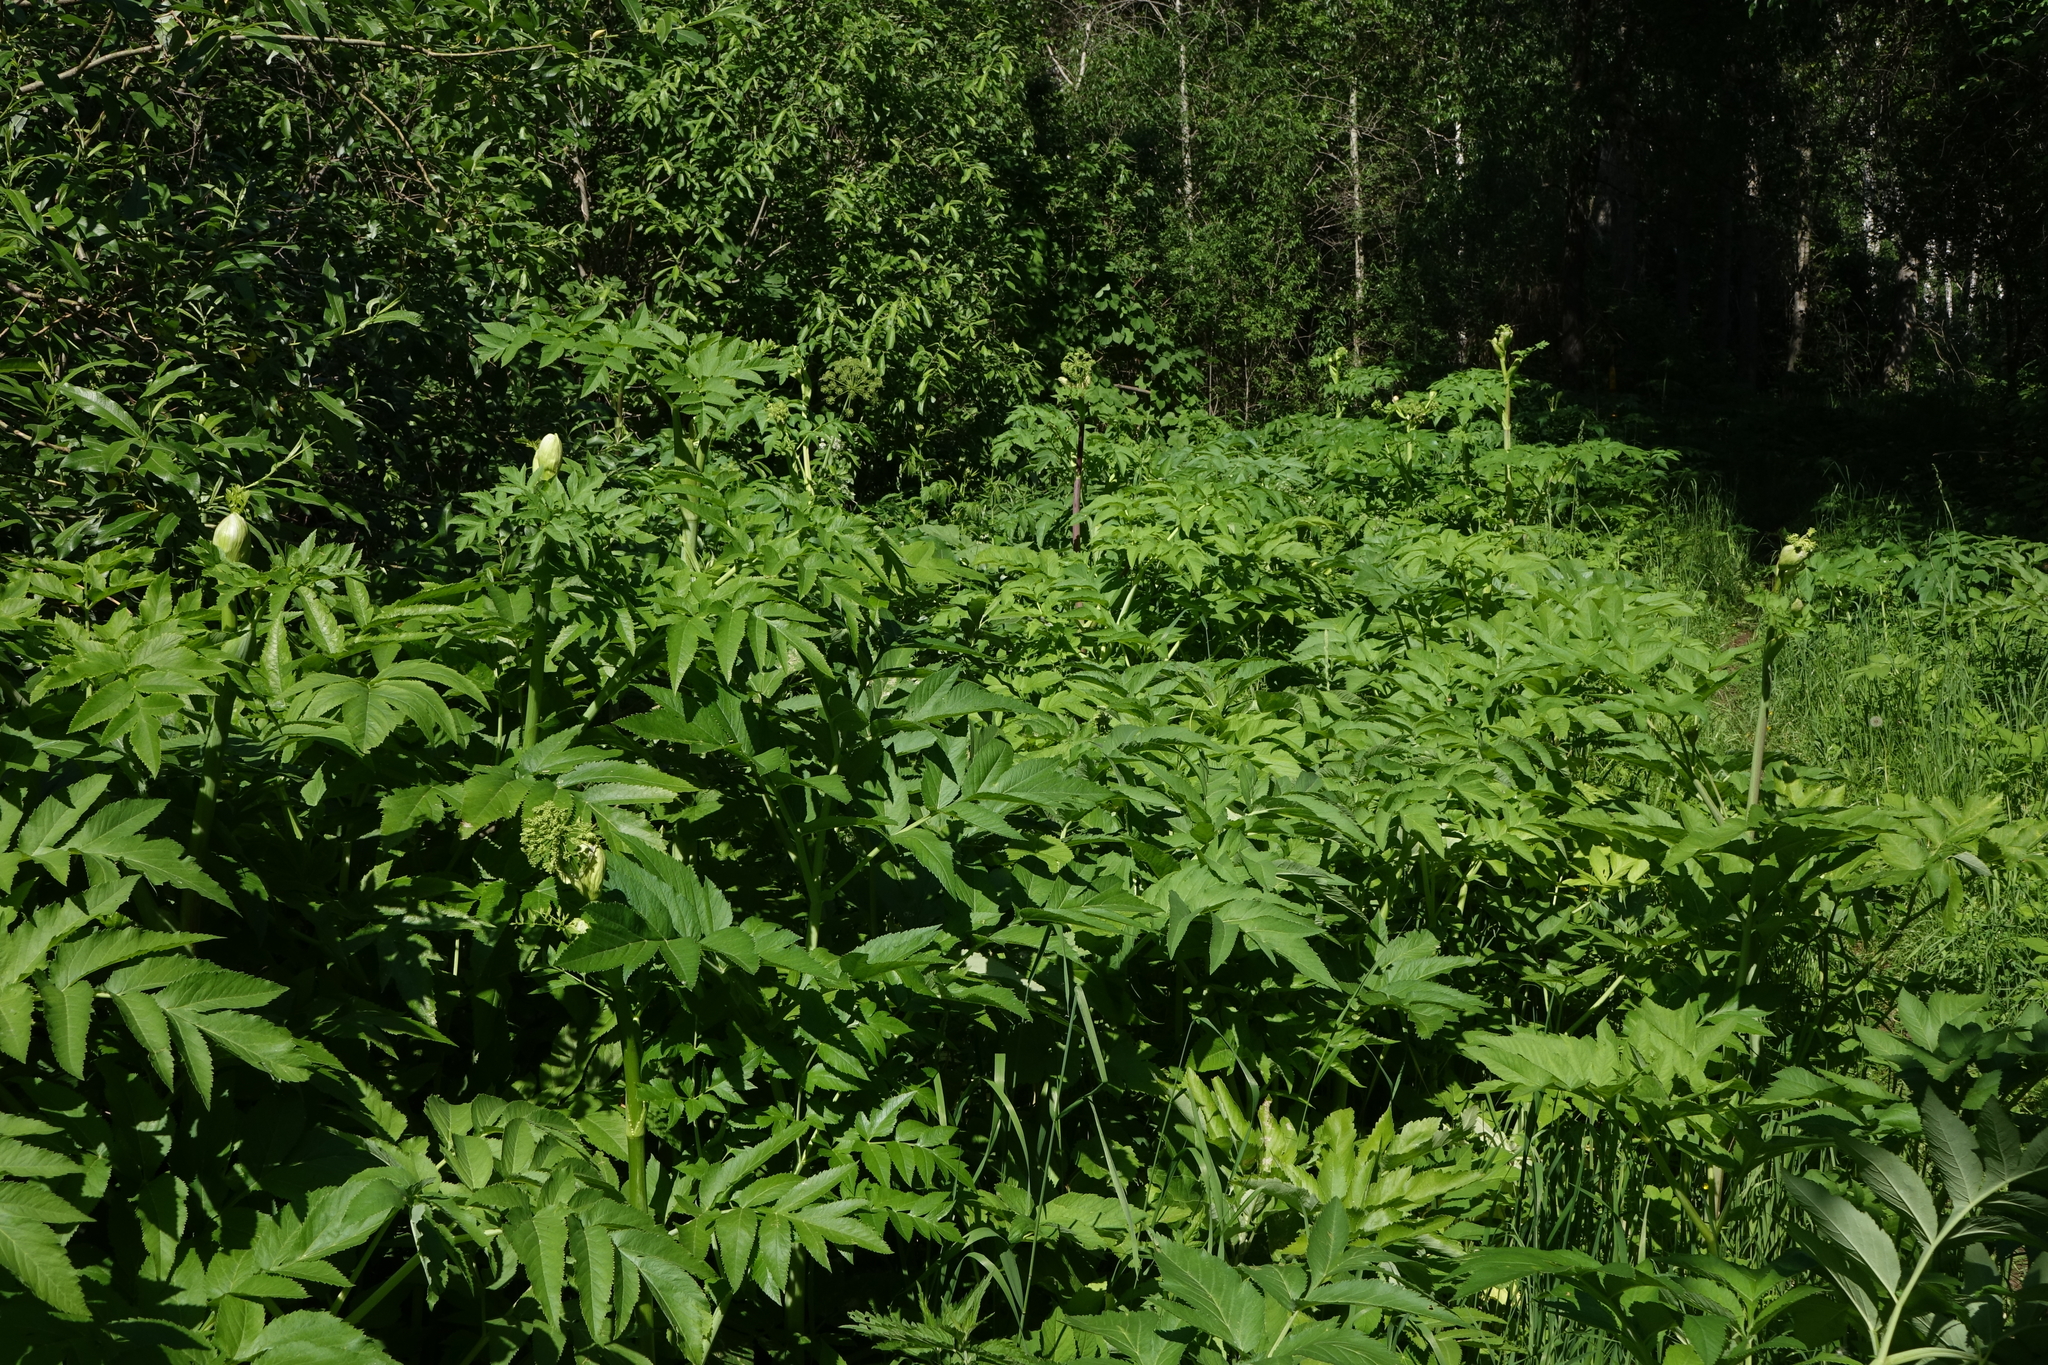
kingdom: Plantae
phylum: Tracheophyta
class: Magnoliopsida
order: Apiales
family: Apiaceae
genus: Angelica
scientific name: Angelica decurrens
